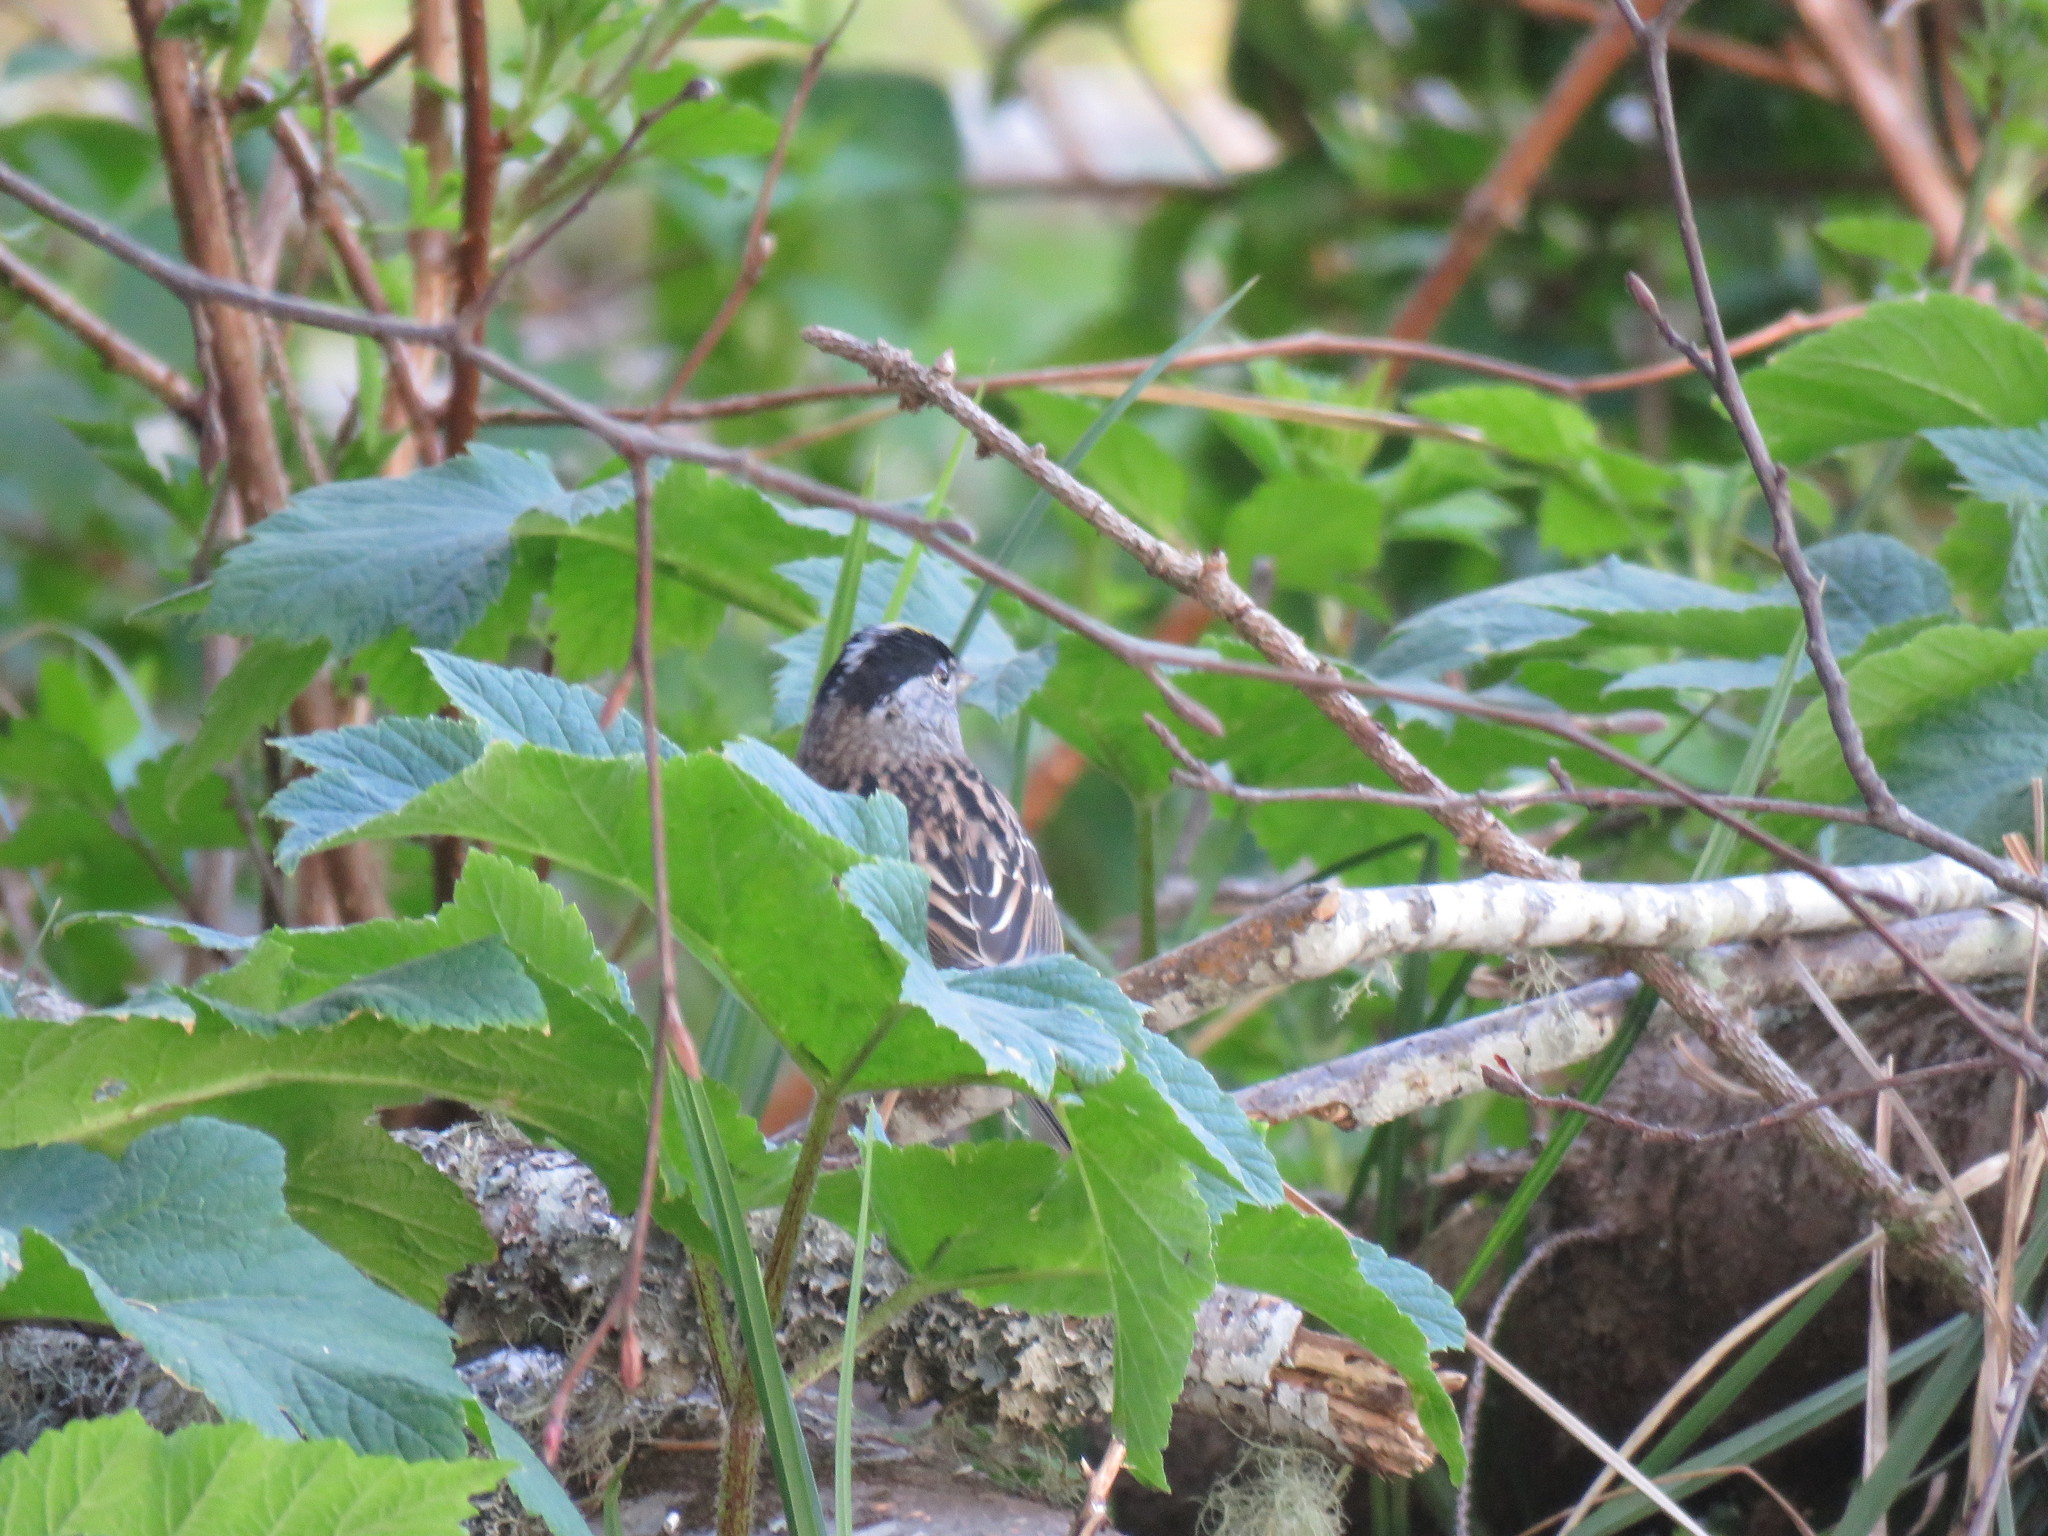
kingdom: Animalia
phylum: Chordata
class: Aves
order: Passeriformes
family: Passerellidae
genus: Zonotrichia
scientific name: Zonotrichia atricapilla
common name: Golden-crowned sparrow
